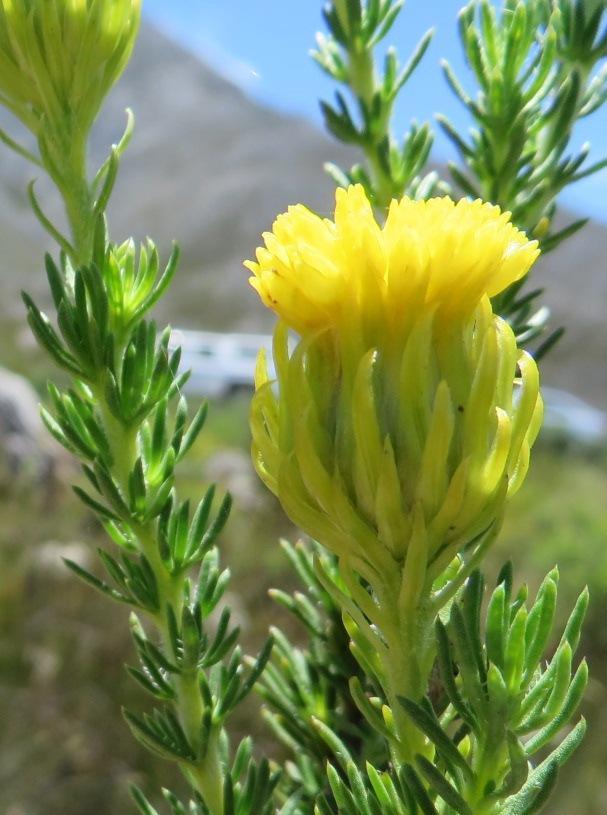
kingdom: Plantae
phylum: Tracheophyta
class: Magnoliopsida
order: Asterales
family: Asteraceae
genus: Pteronia
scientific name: Pteronia camphorata
